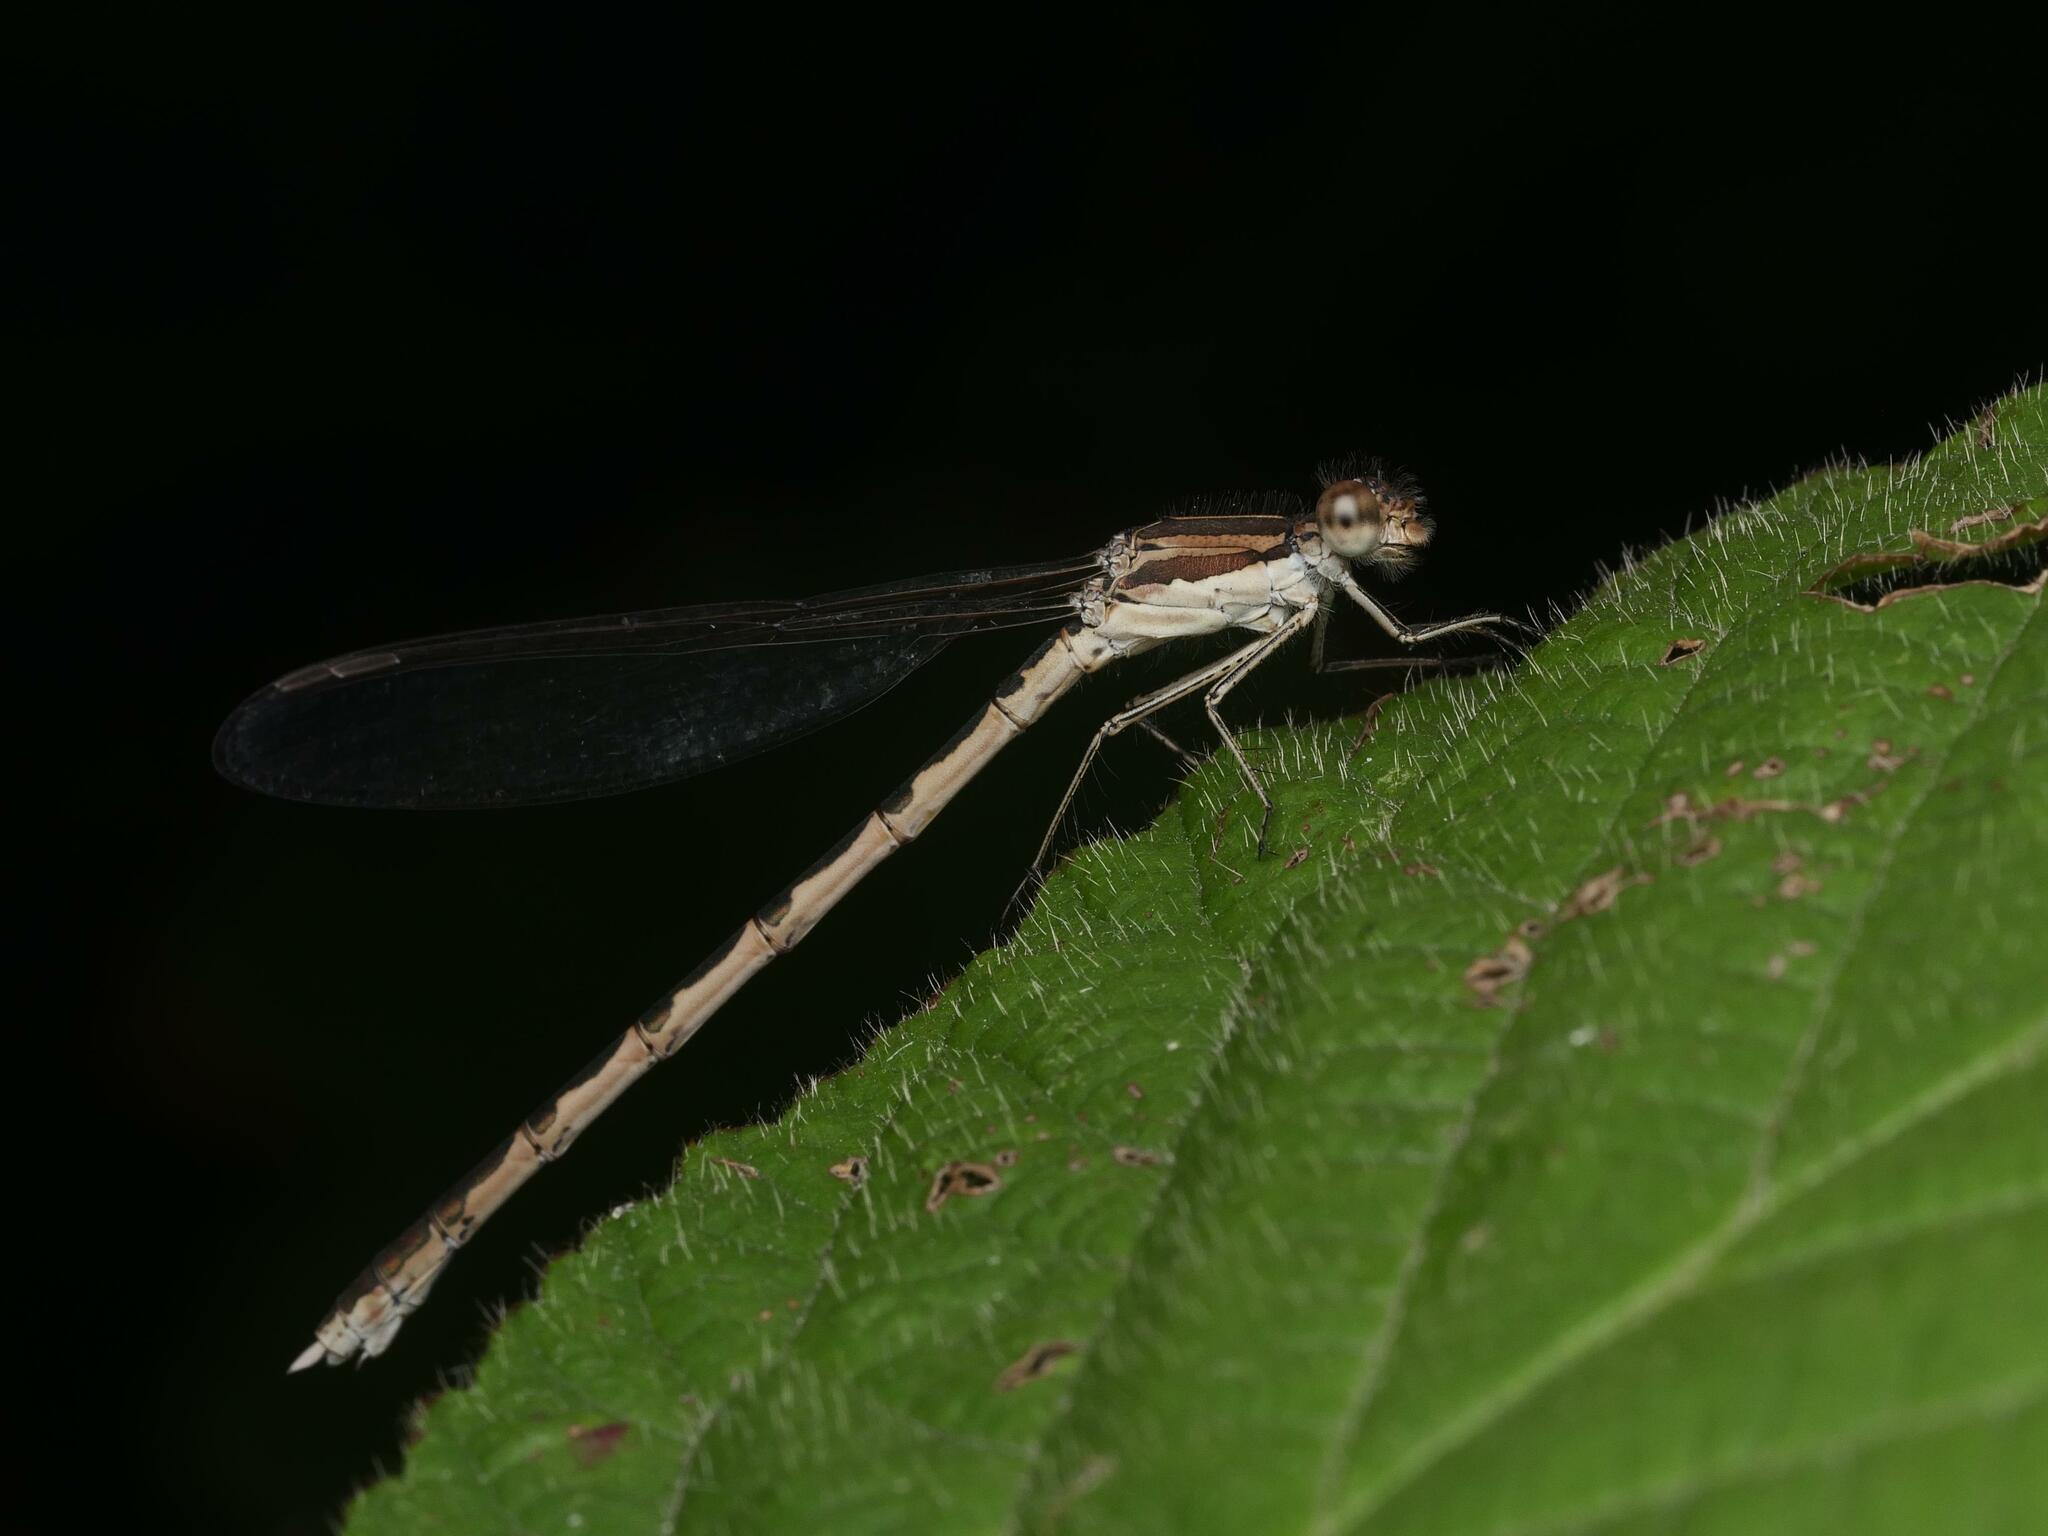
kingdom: Animalia
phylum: Arthropoda
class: Insecta
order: Odonata
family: Lestidae
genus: Sympecma
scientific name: Sympecma fusca
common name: Common winter damsel
